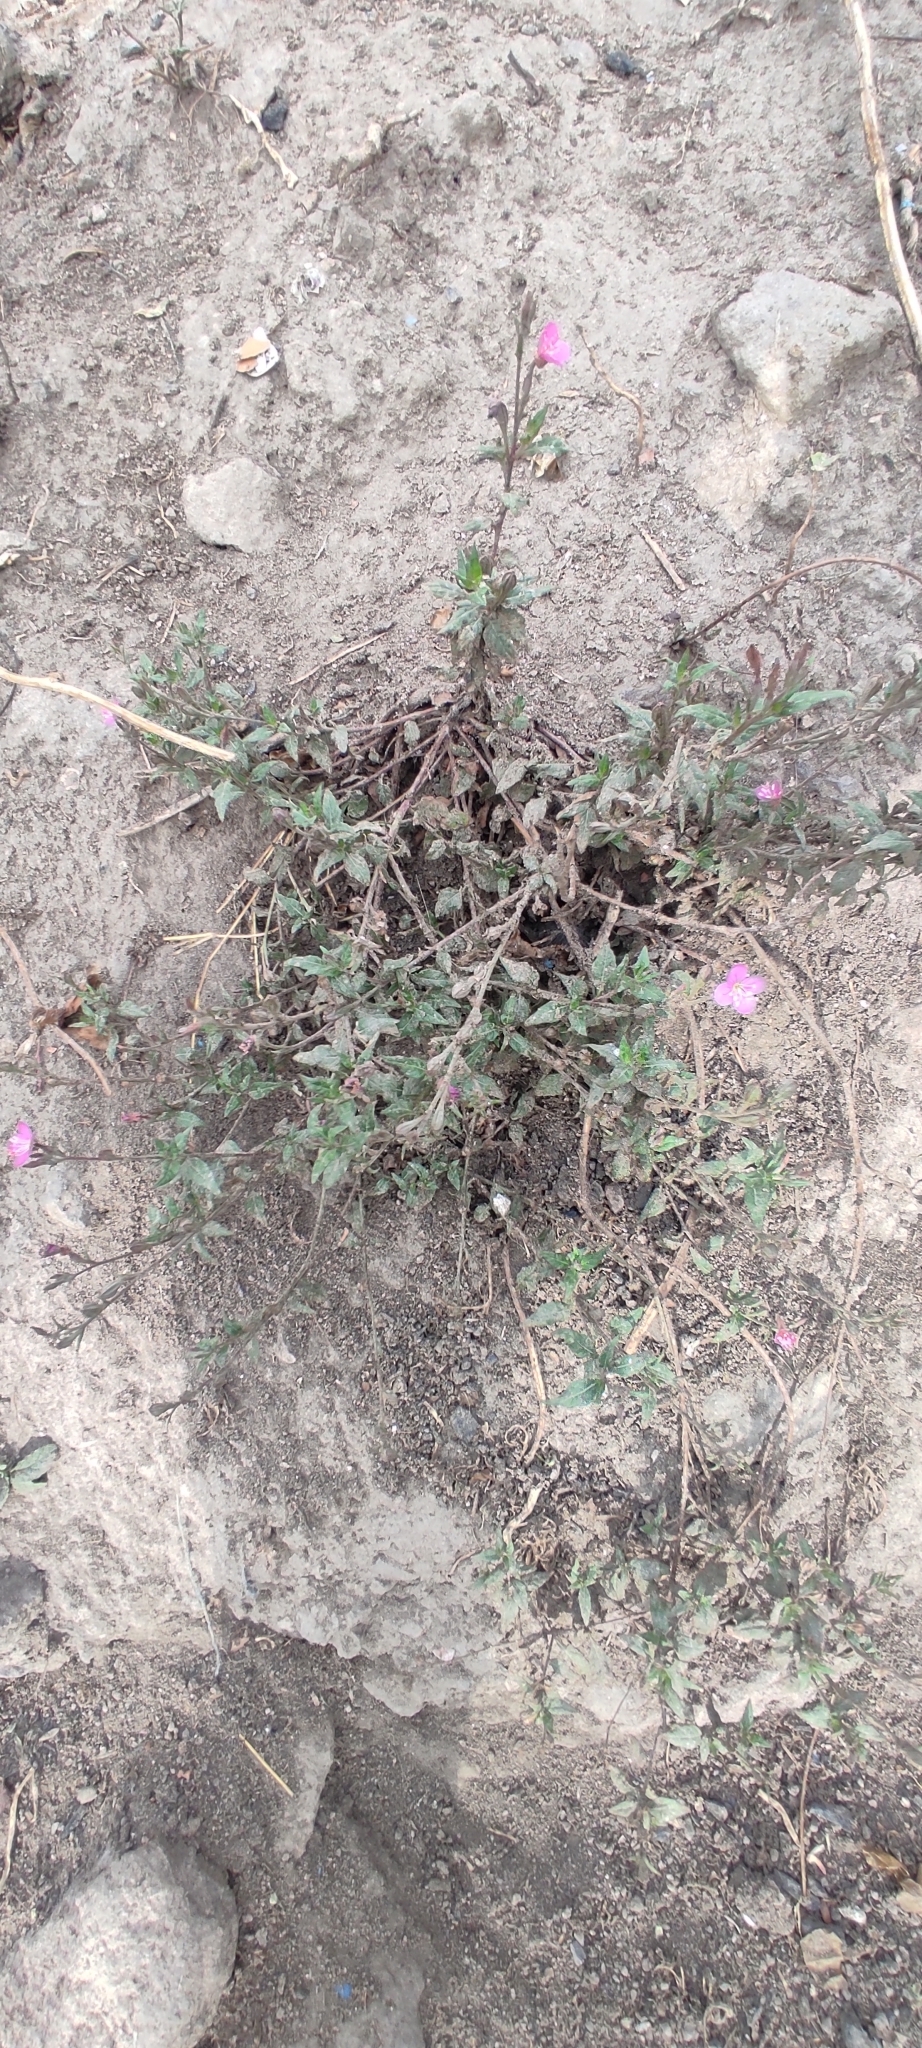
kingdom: Plantae
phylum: Tracheophyta
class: Magnoliopsida
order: Myrtales
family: Onagraceae
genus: Oenothera
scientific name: Oenothera rosea
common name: Rosy evening-primrose
